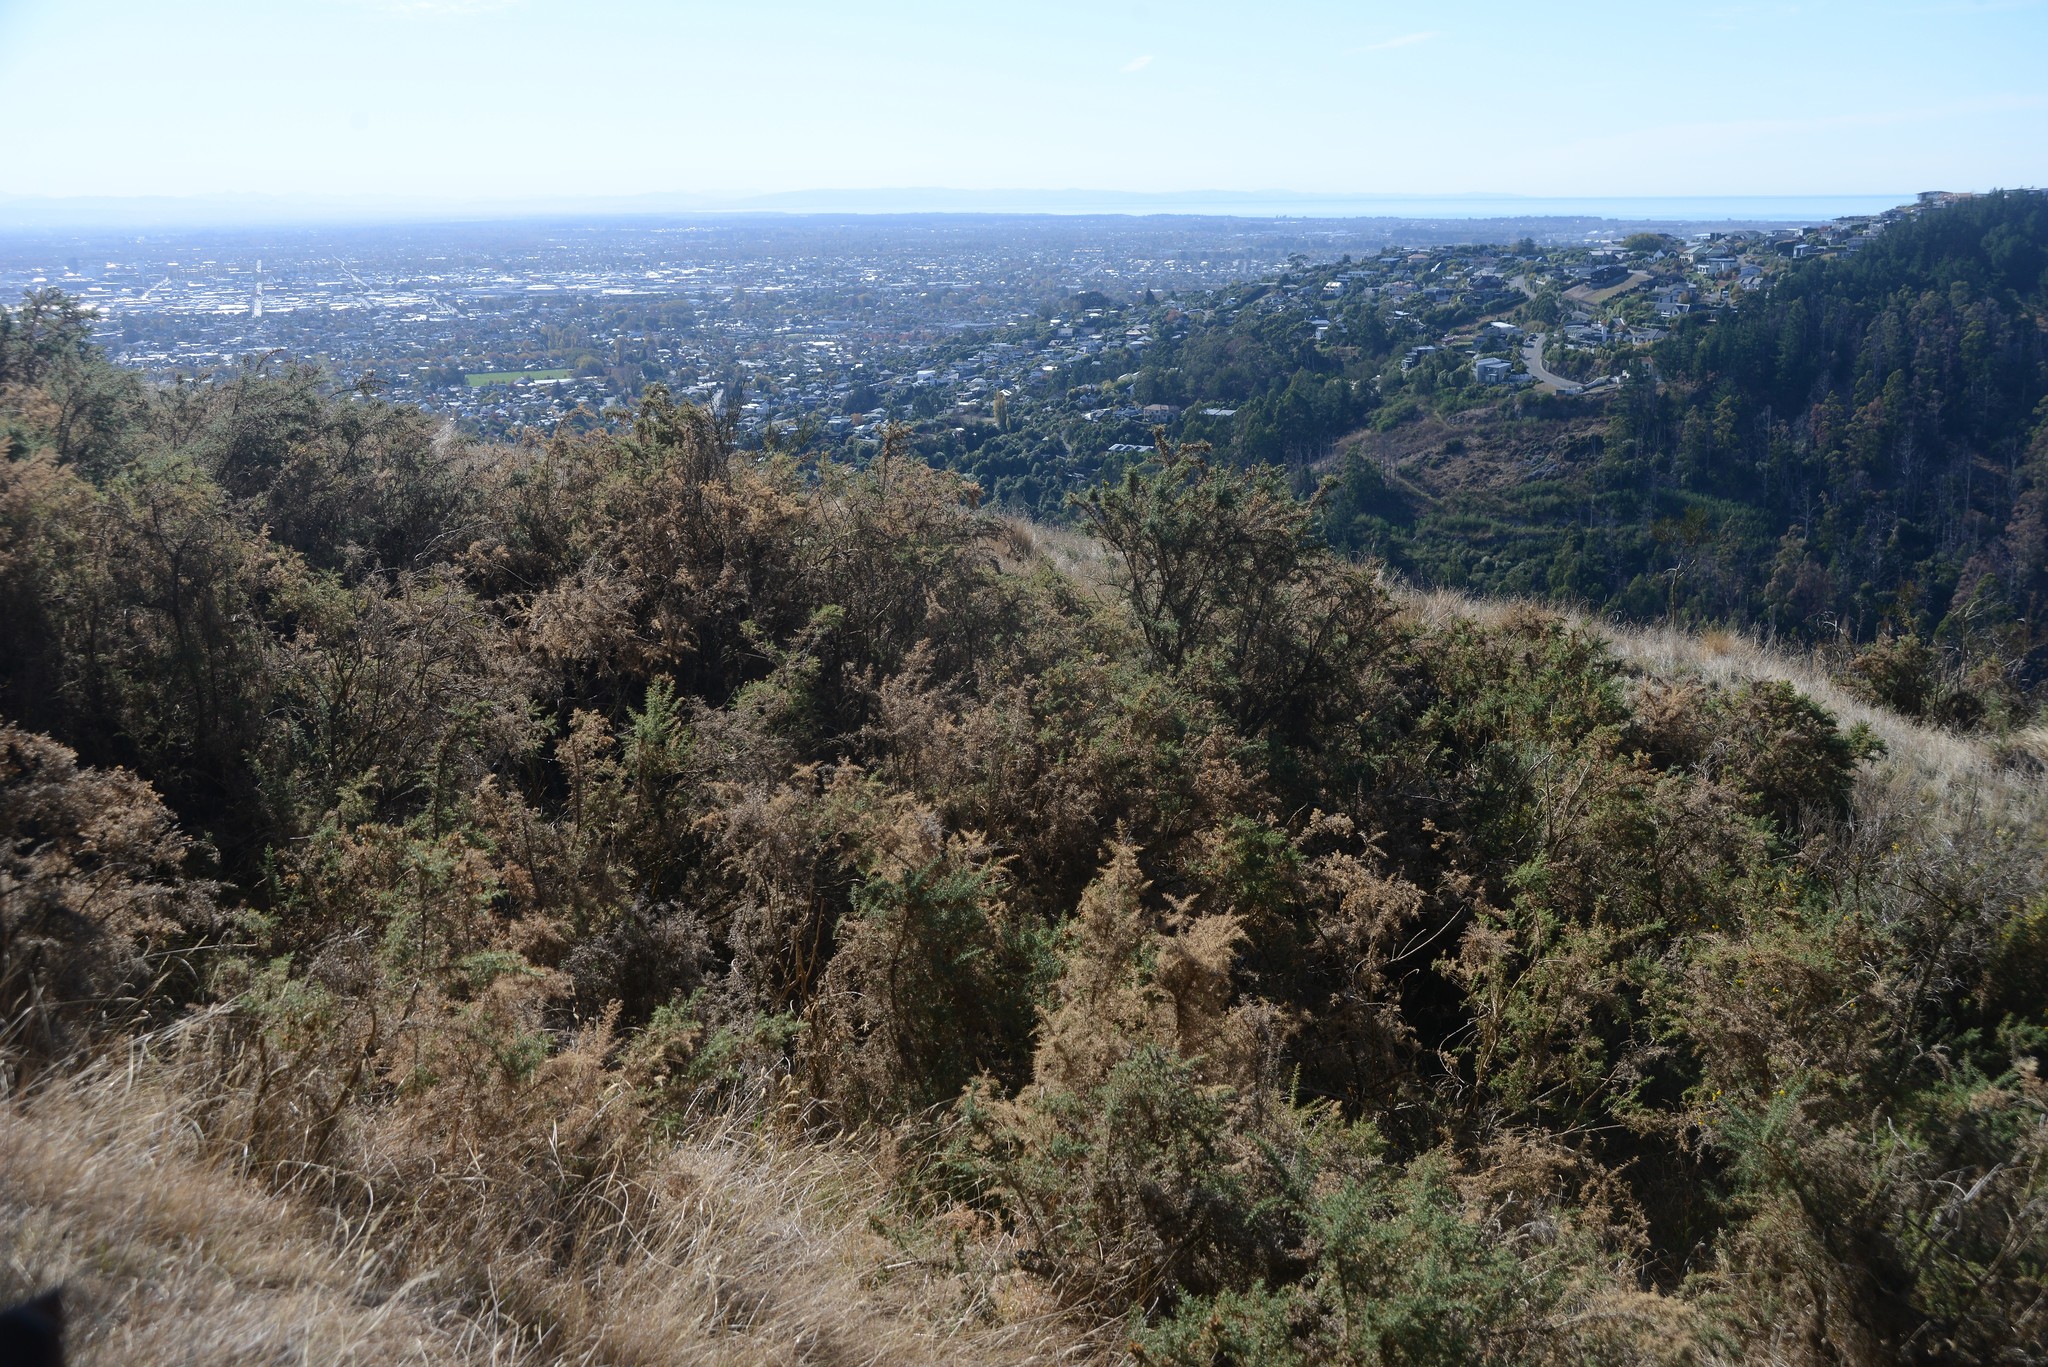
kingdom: Plantae
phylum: Tracheophyta
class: Magnoliopsida
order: Fabales
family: Fabaceae
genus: Ulex
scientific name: Ulex europaeus
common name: Common gorse
